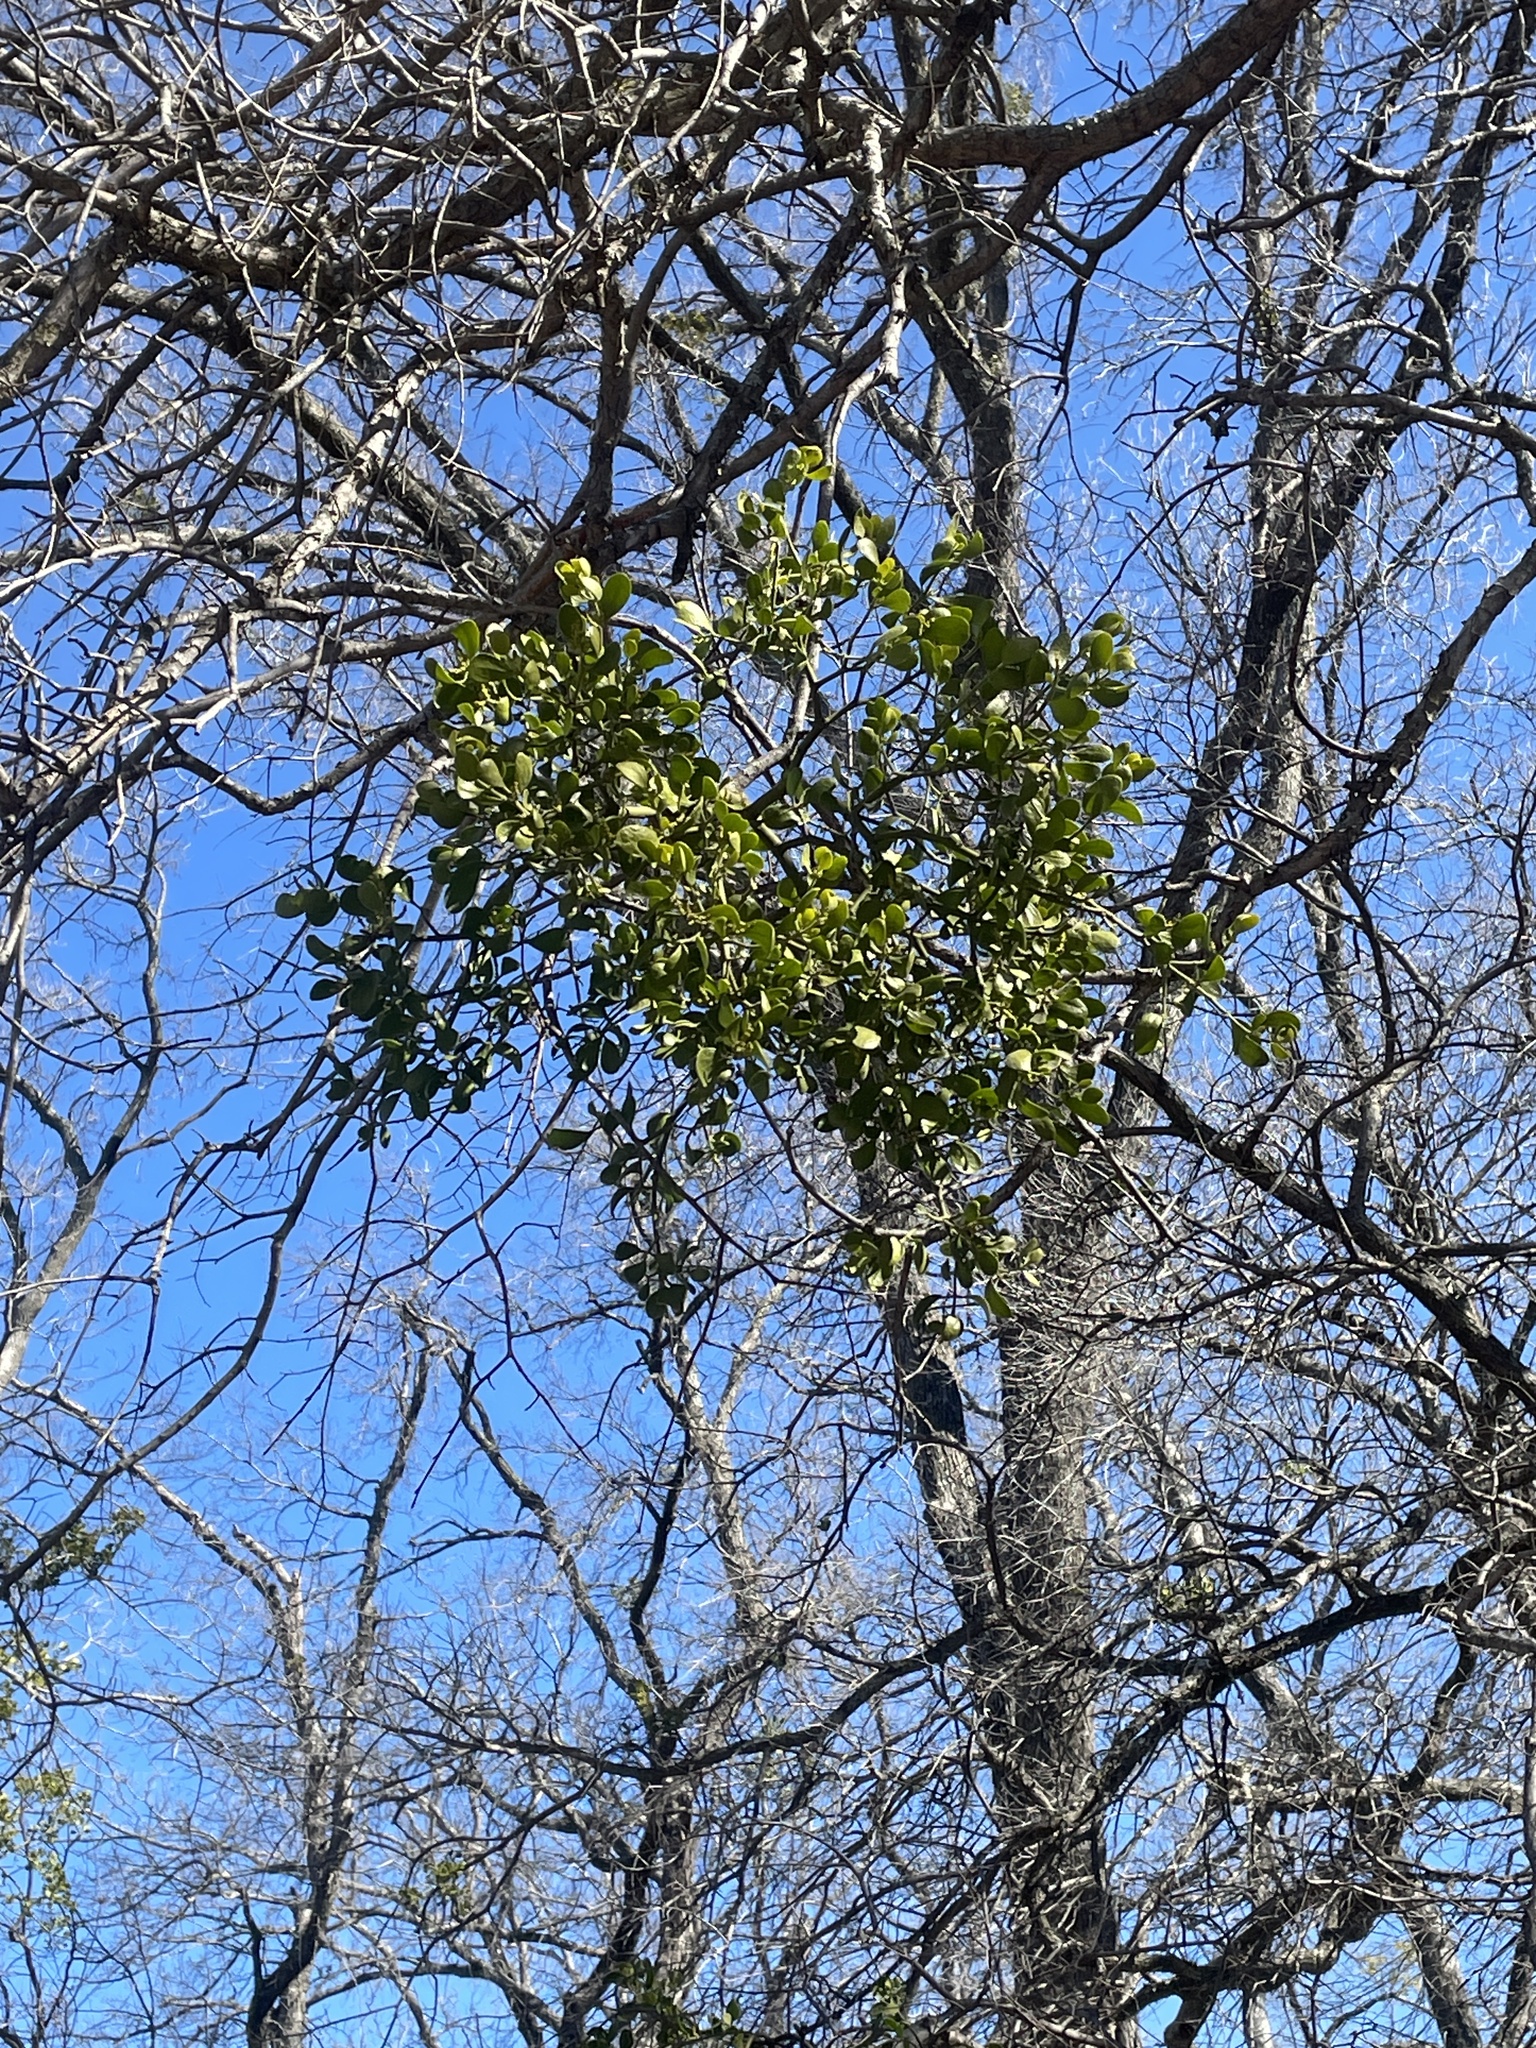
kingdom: Plantae
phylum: Tracheophyta
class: Magnoliopsida
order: Santalales
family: Viscaceae
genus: Phoradendron
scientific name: Phoradendron leucarpum
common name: Pacific mistletoe
